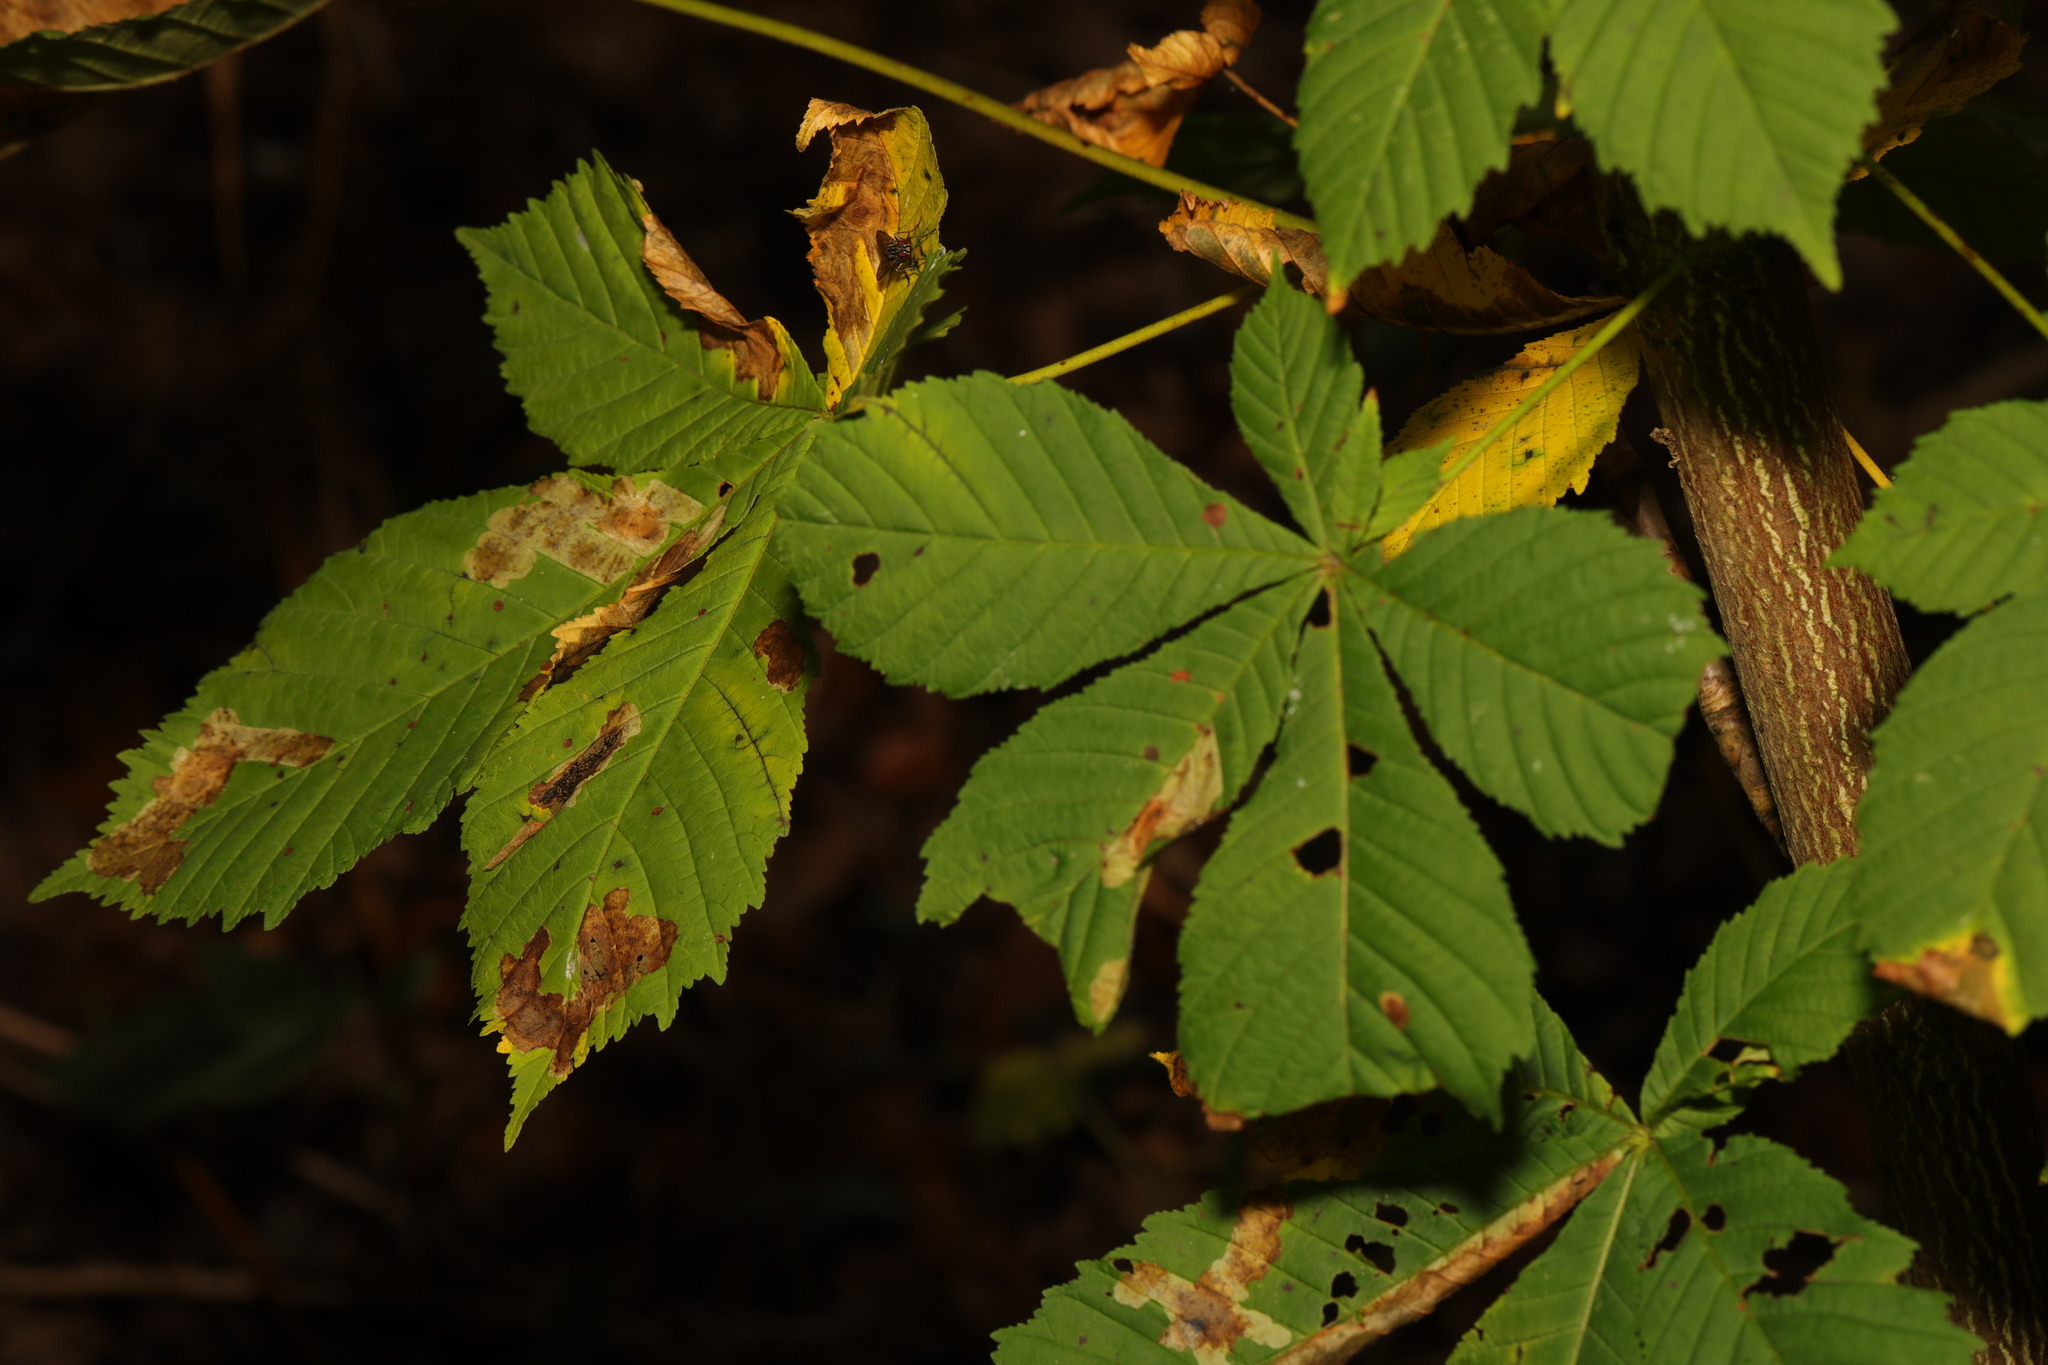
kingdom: Plantae
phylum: Tracheophyta
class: Magnoliopsida
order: Sapindales
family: Sapindaceae
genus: Aesculus
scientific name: Aesculus hippocastanum
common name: Horse-chestnut
